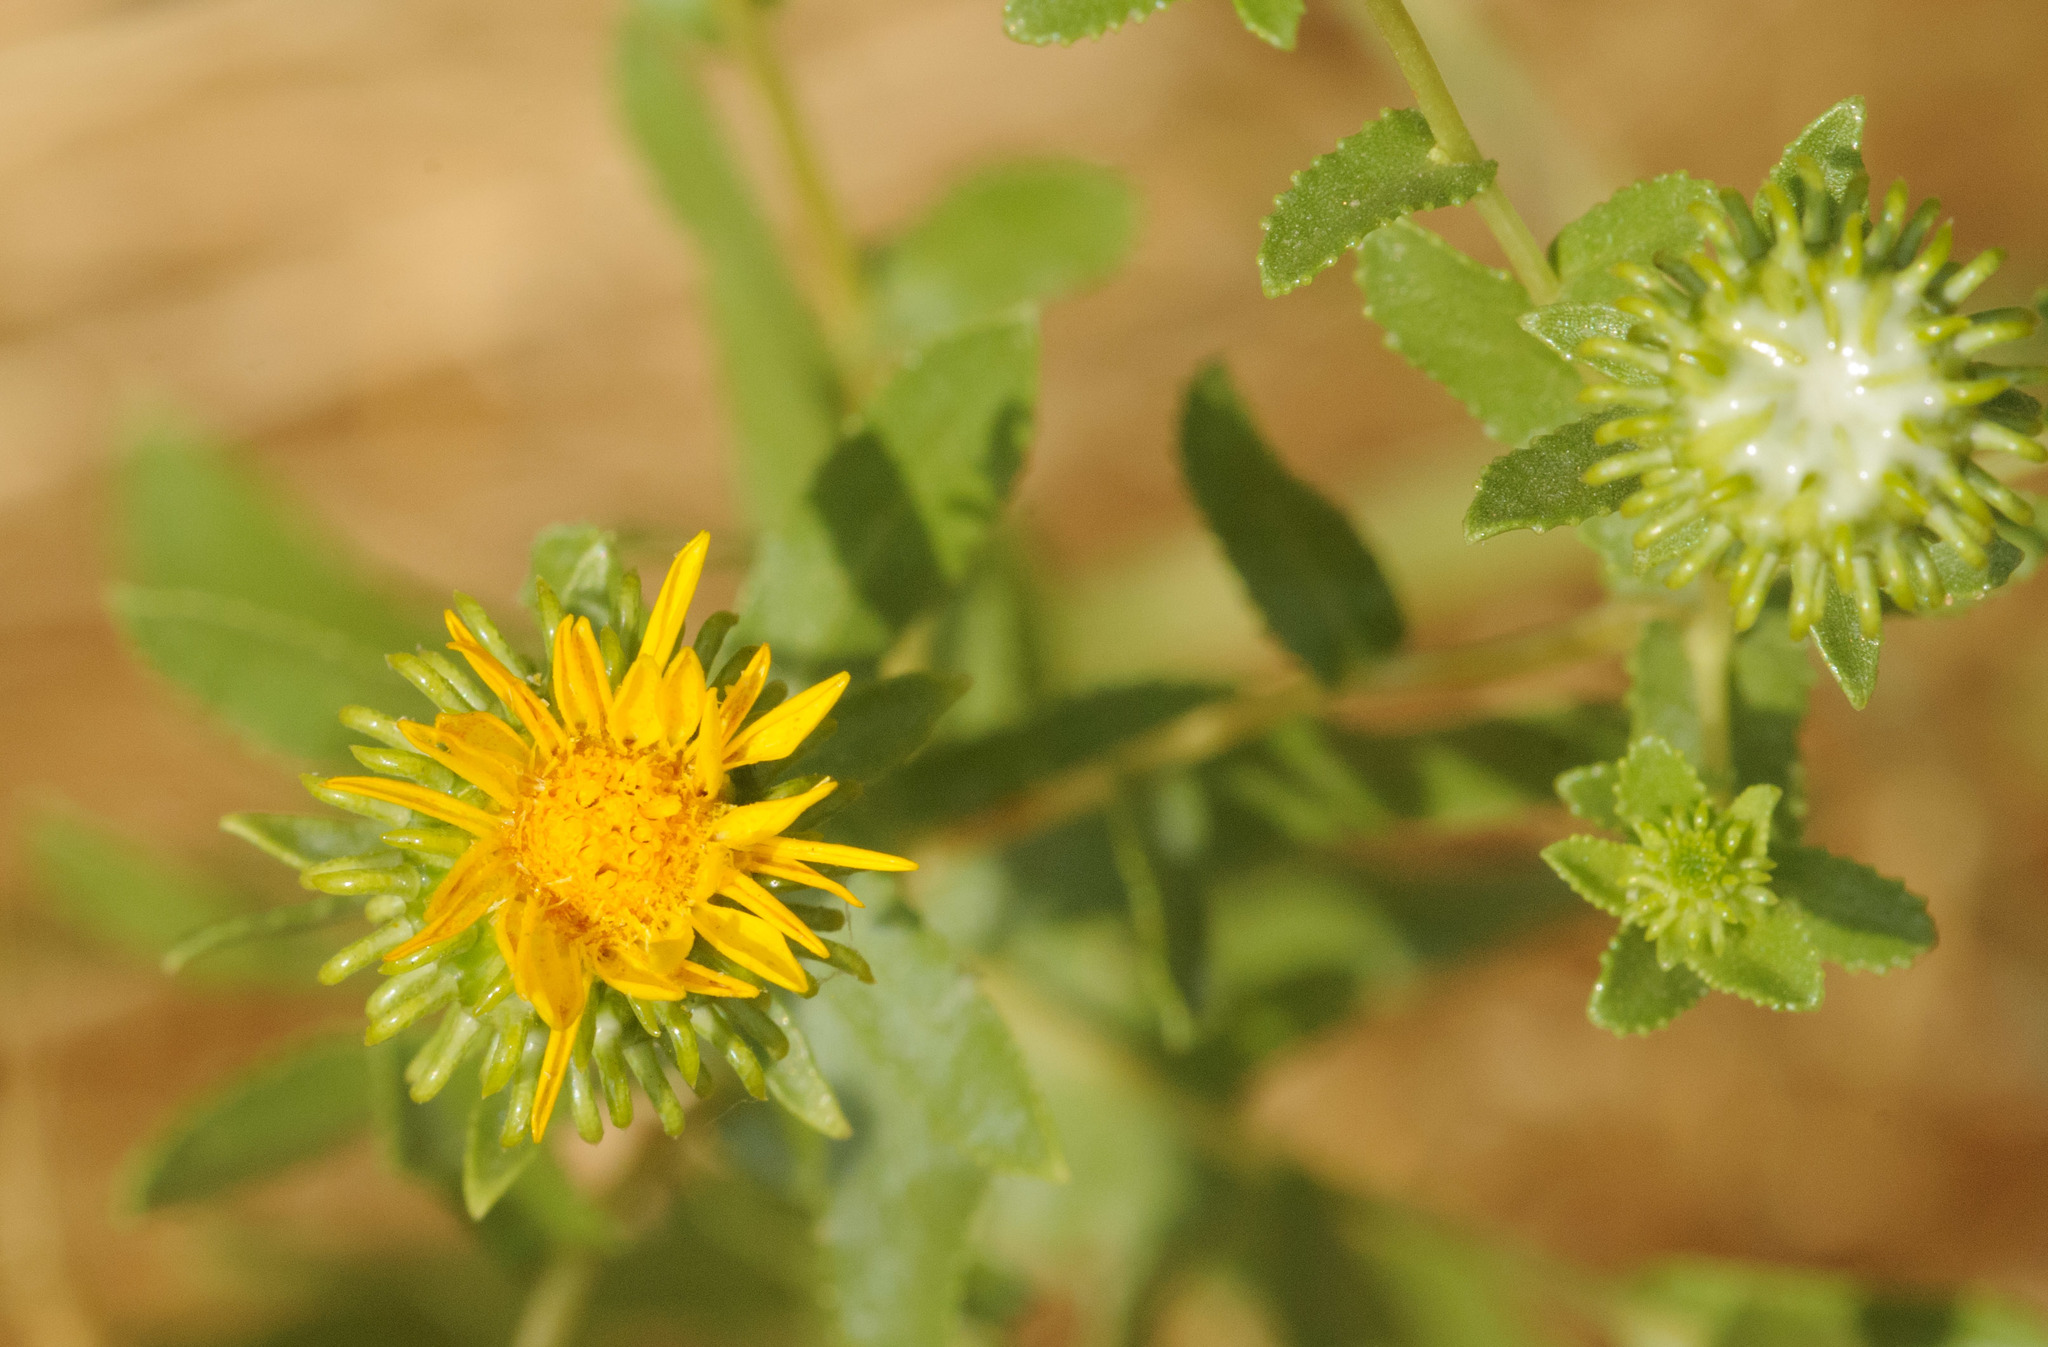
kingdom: Plantae
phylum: Tracheophyta
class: Magnoliopsida
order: Asterales
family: Asteraceae
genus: Grindelia
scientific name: Grindelia squarrosa
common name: Curly-cup gumweed
